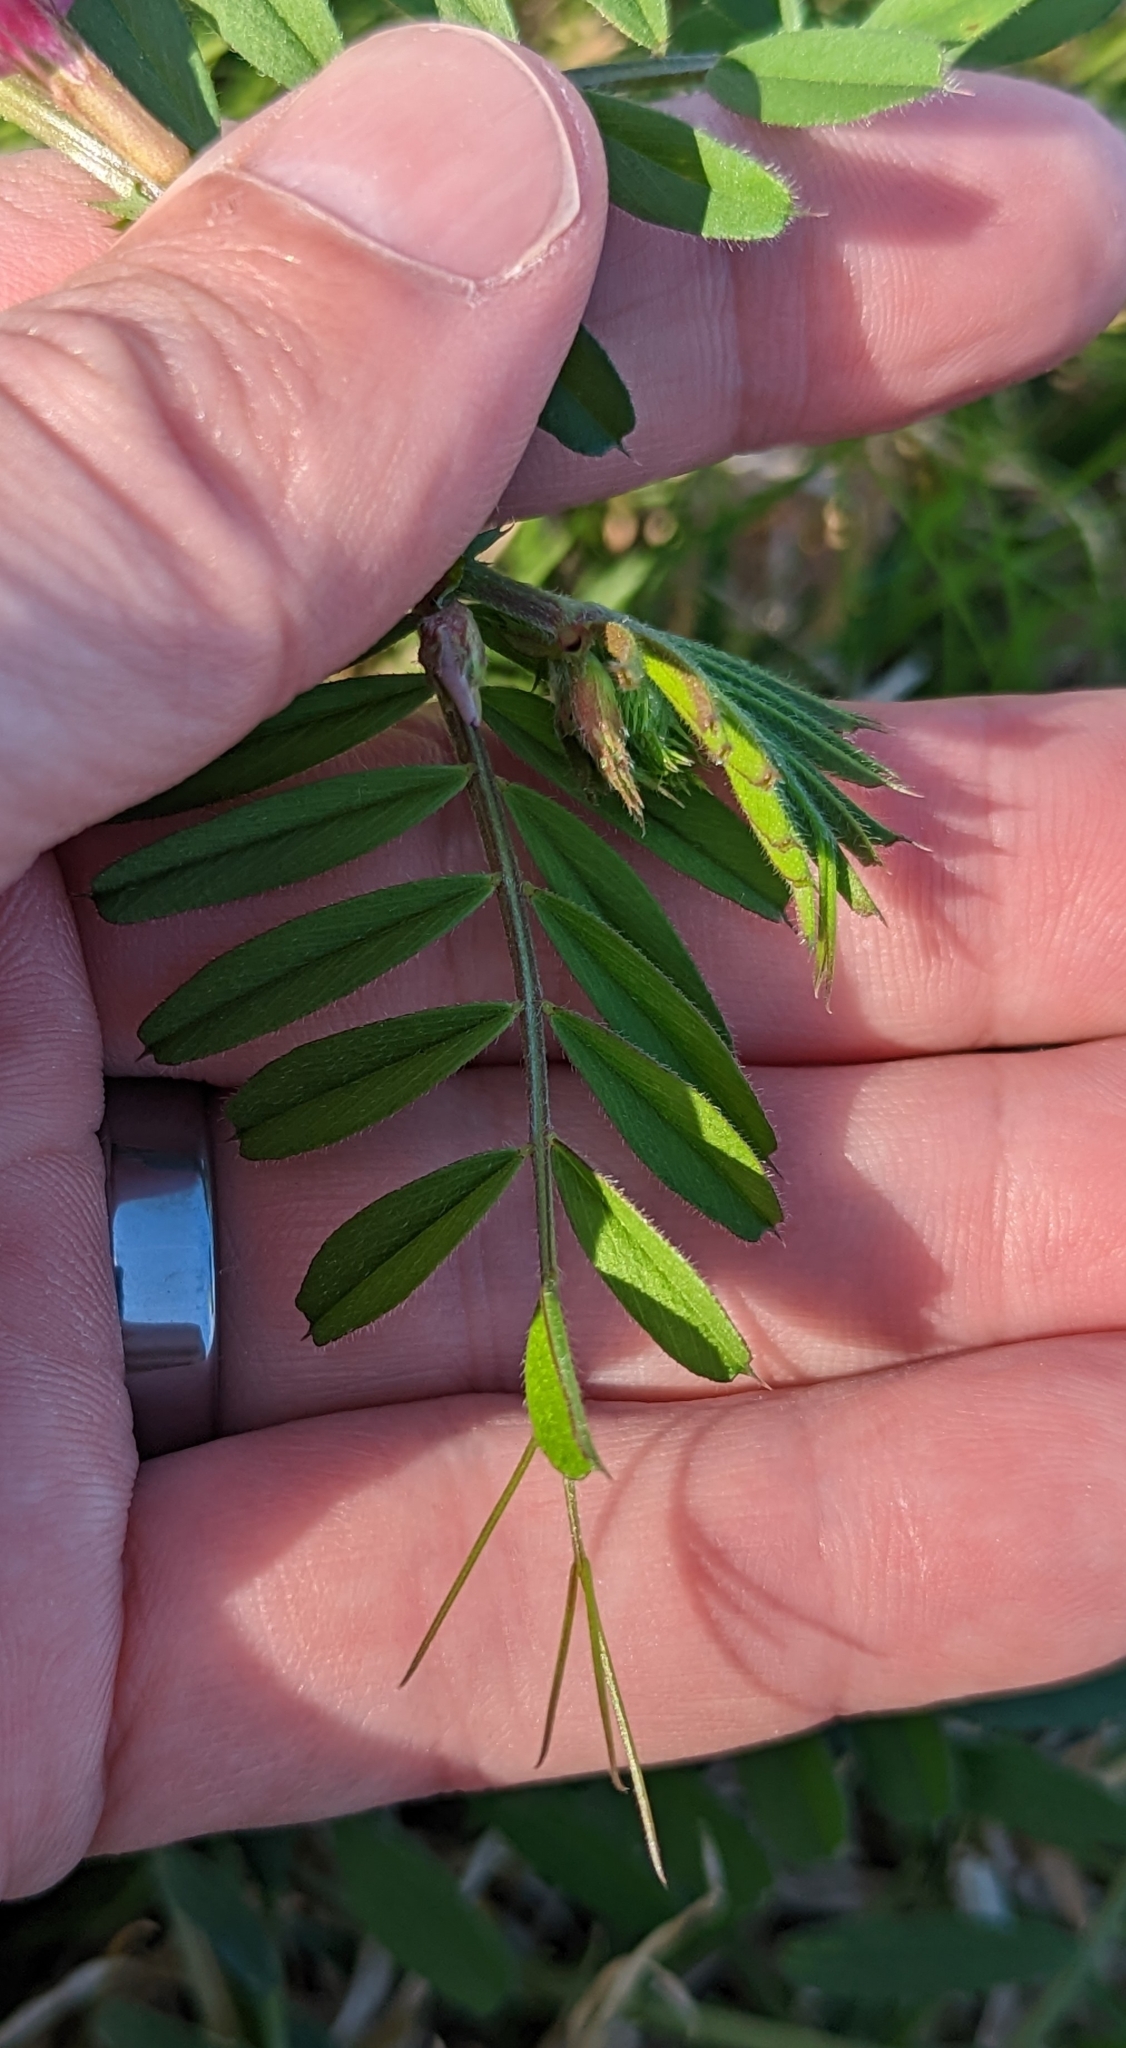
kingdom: Plantae
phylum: Tracheophyta
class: Magnoliopsida
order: Fabales
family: Fabaceae
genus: Vicia
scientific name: Vicia sativa
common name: Garden vetch
